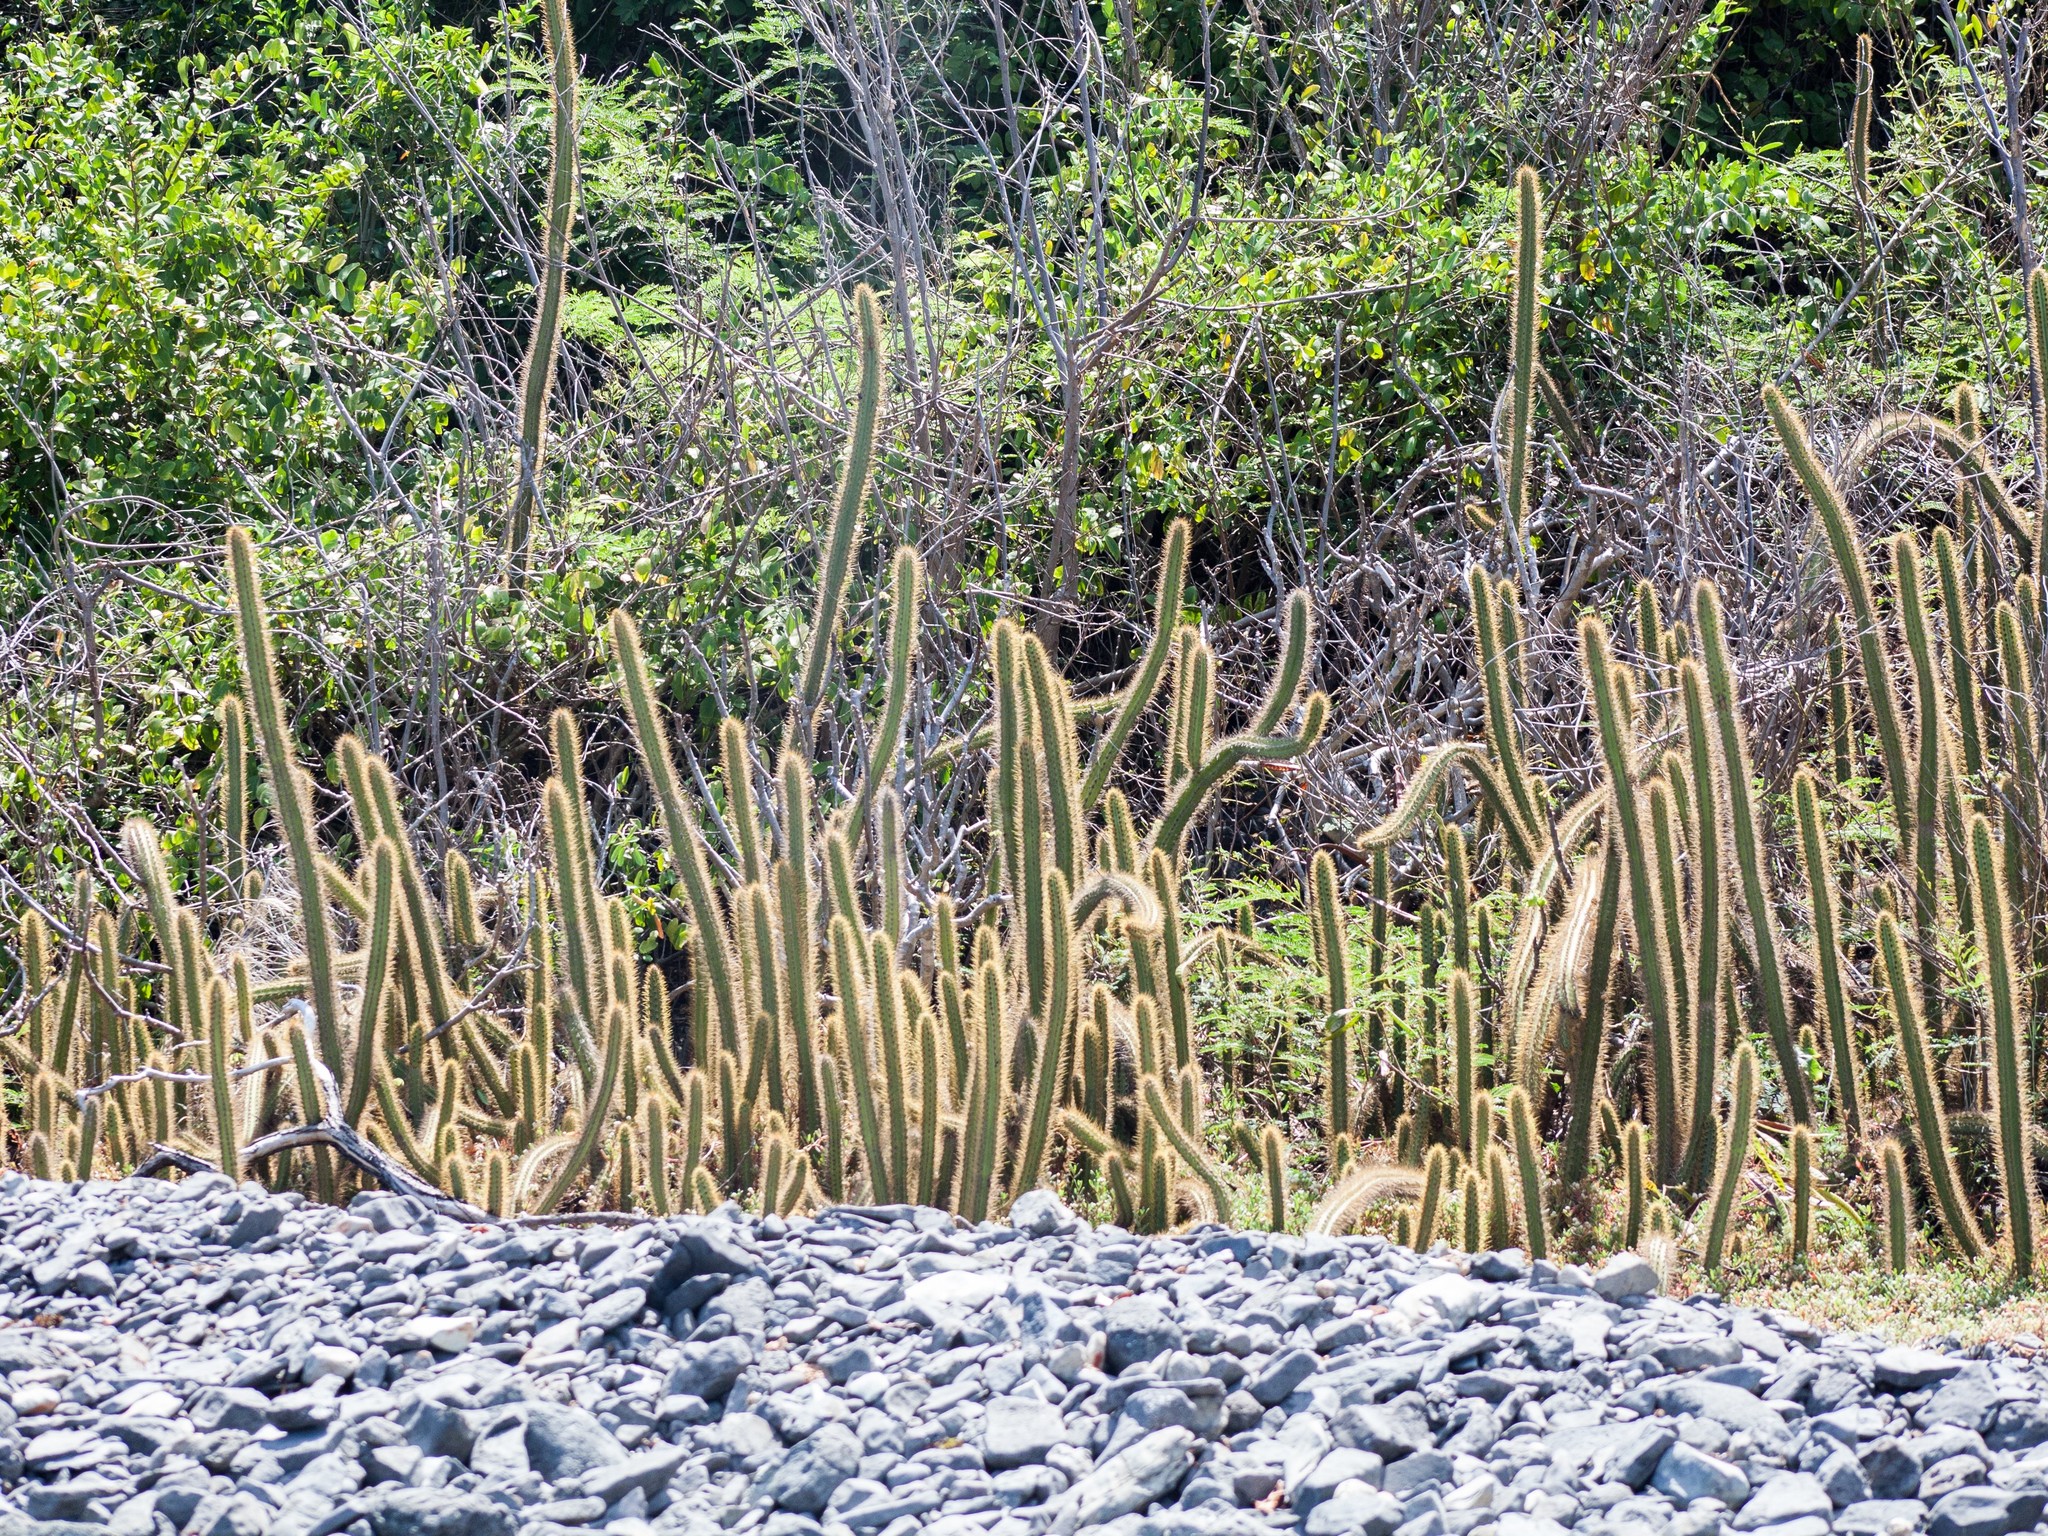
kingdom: Plantae
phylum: Tracheophyta
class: Magnoliopsida
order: Caryophyllales
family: Cactaceae
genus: Cereus
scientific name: Cereus insularis
